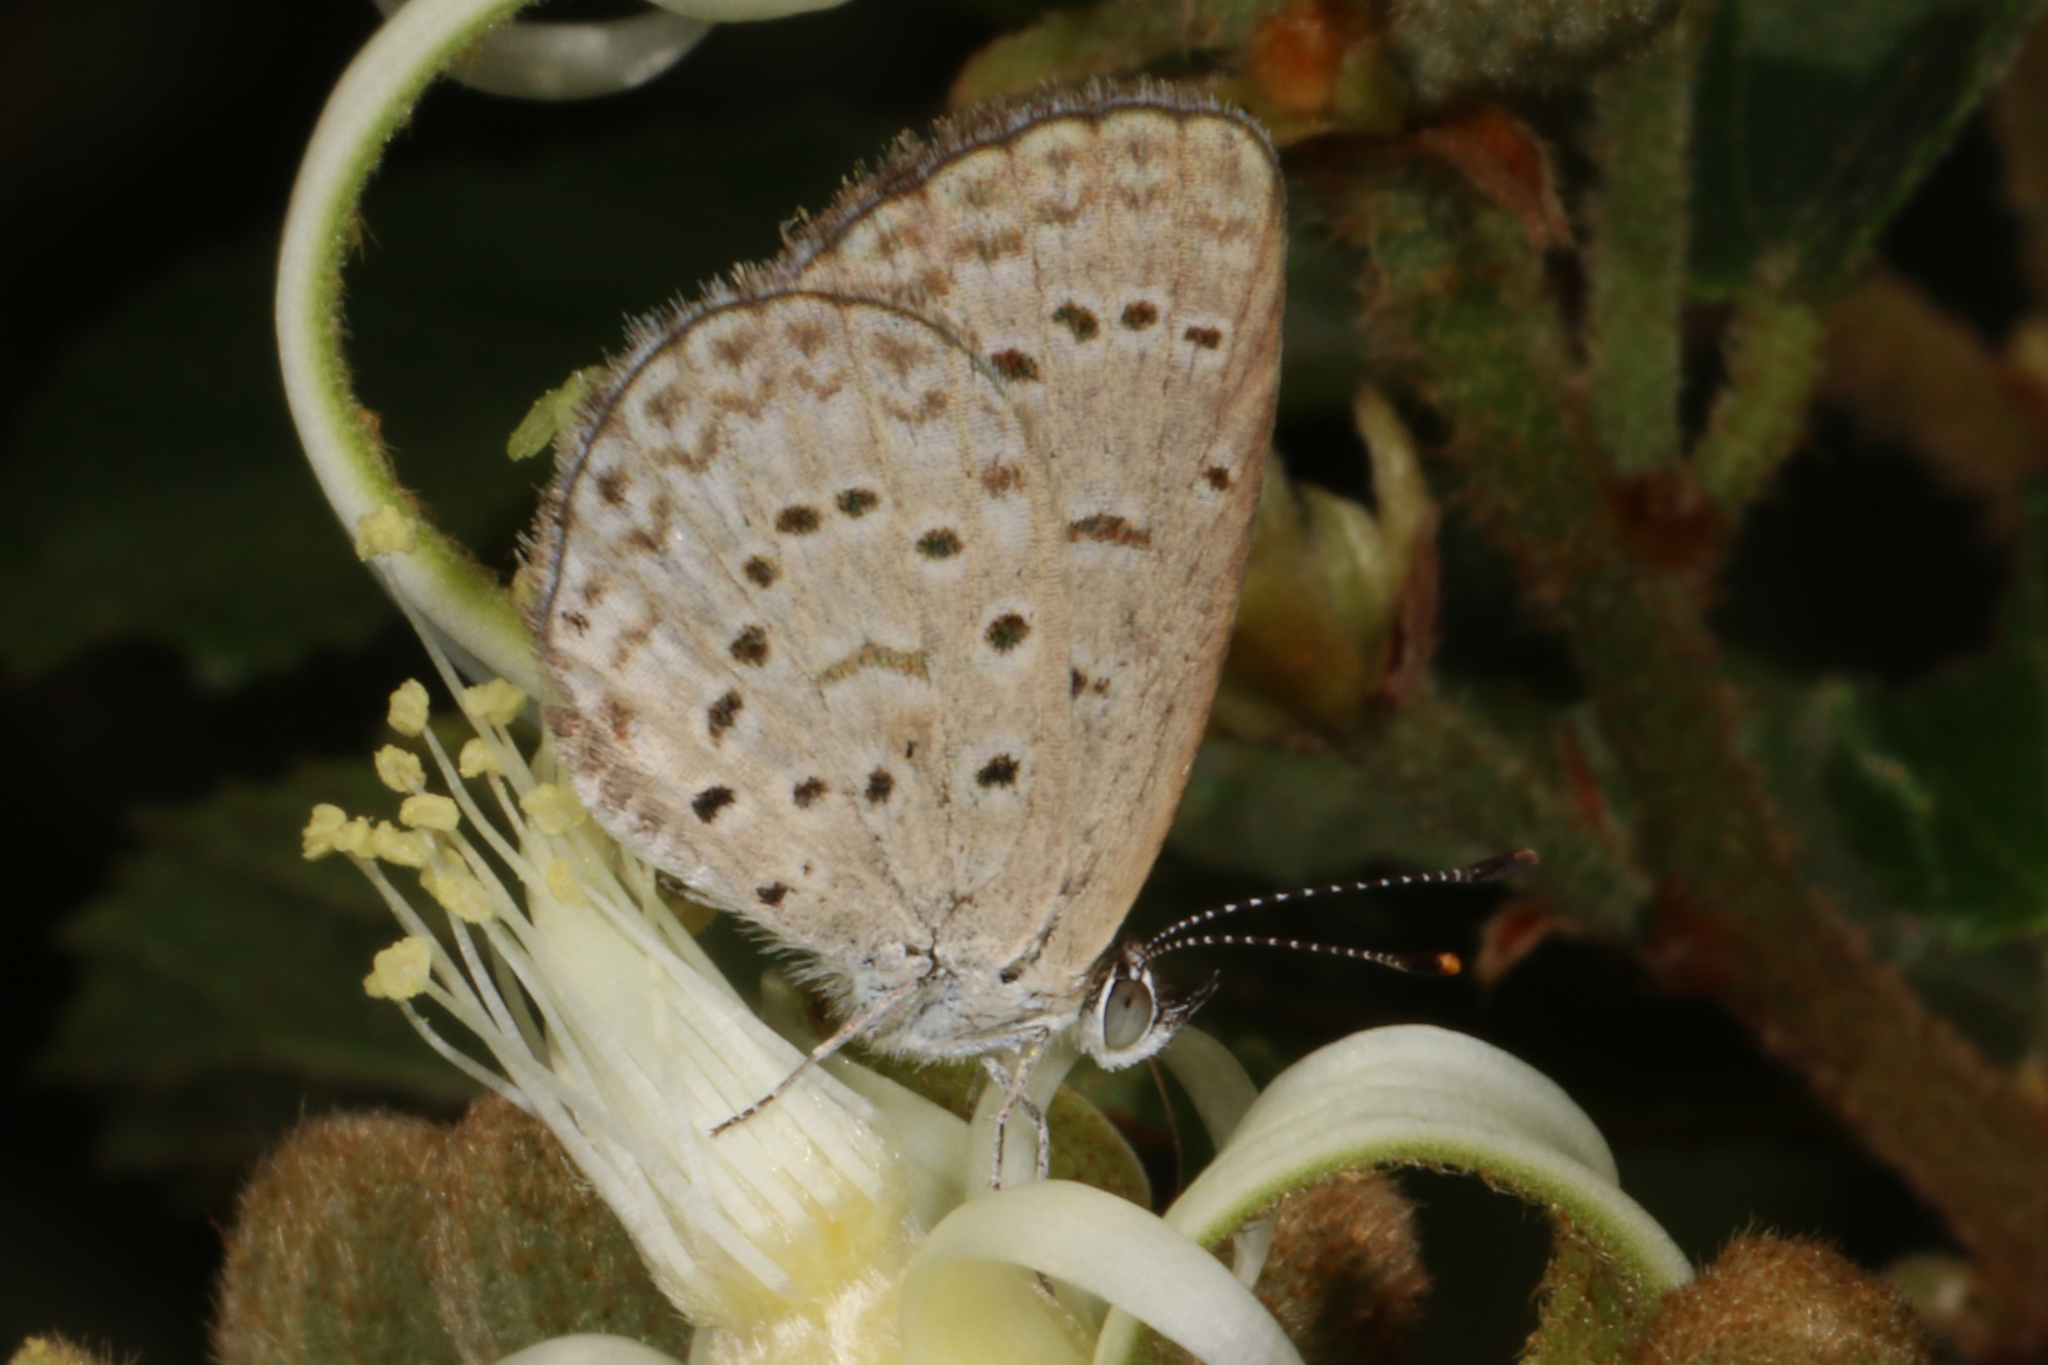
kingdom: Animalia
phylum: Arthropoda
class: Insecta
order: Lepidoptera
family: Lycaenidae
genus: Zizeeria
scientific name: Zizeeria knysna
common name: African grass blue
